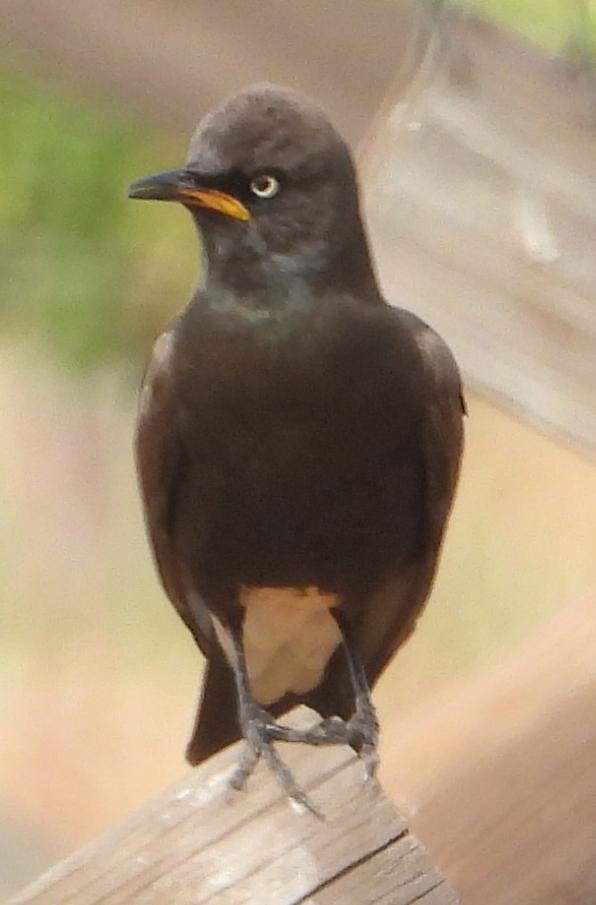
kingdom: Animalia
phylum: Chordata
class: Aves
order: Passeriformes
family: Sturnidae
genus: Lamprotornis
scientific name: Lamprotornis bicolor
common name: Pied starling
